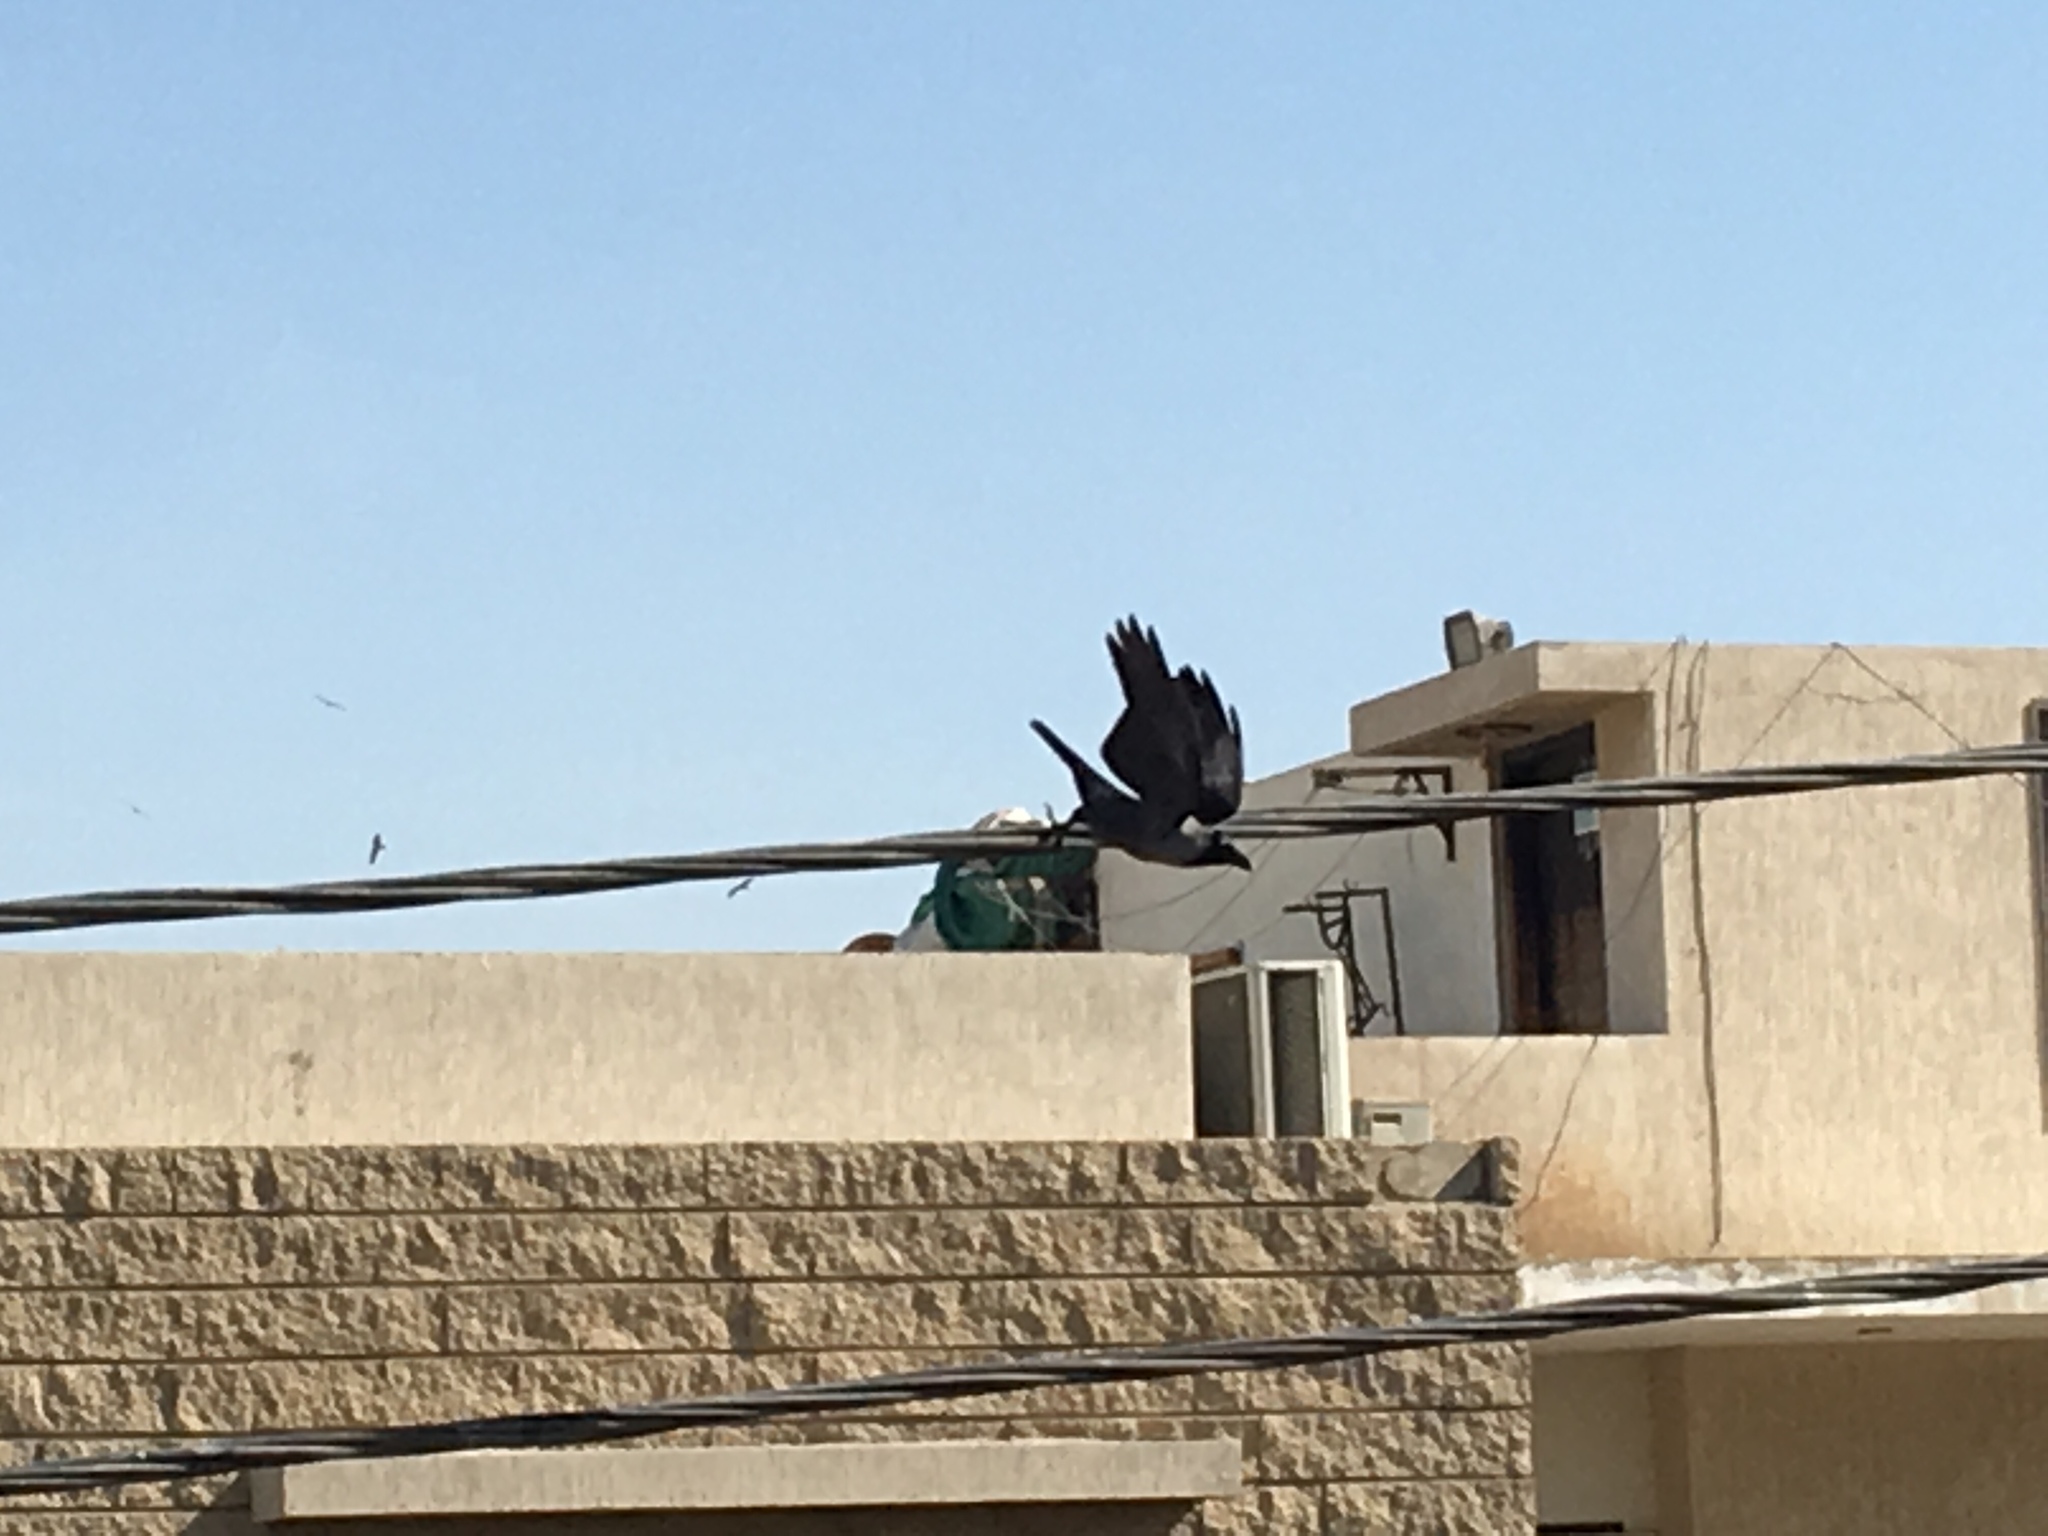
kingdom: Animalia
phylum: Chordata
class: Aves
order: Passeriformes
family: Corvidae
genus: Corvus
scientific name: Corvus splendens
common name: House crow
